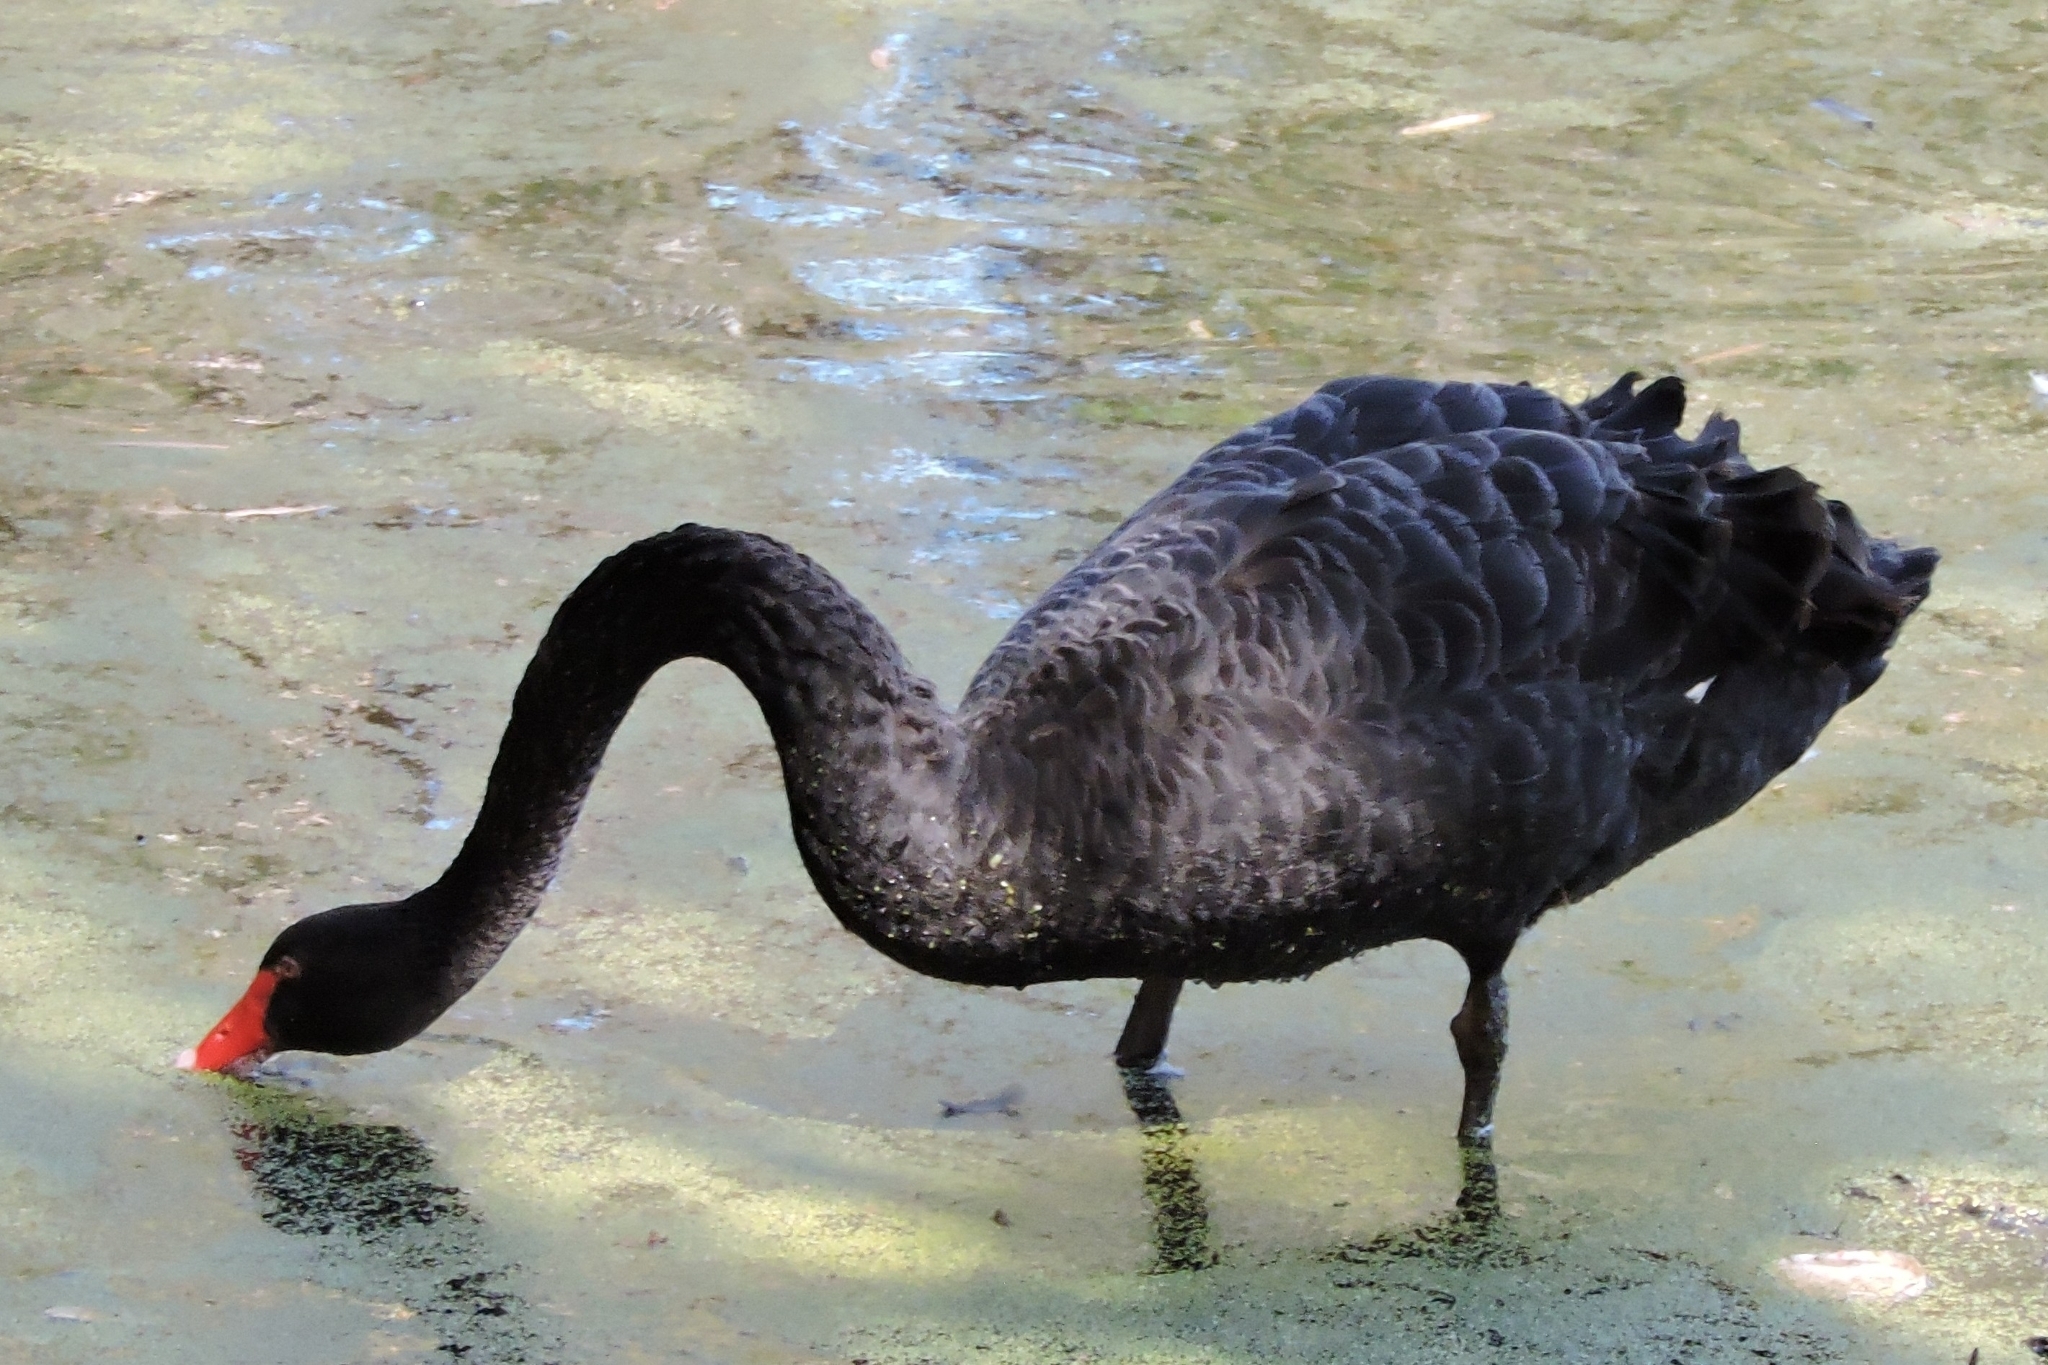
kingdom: Animalia
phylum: Chordata
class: Aves
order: Anseriformes
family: Anatidae
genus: Cygnus
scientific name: Cygnus atratus
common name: Black swan
